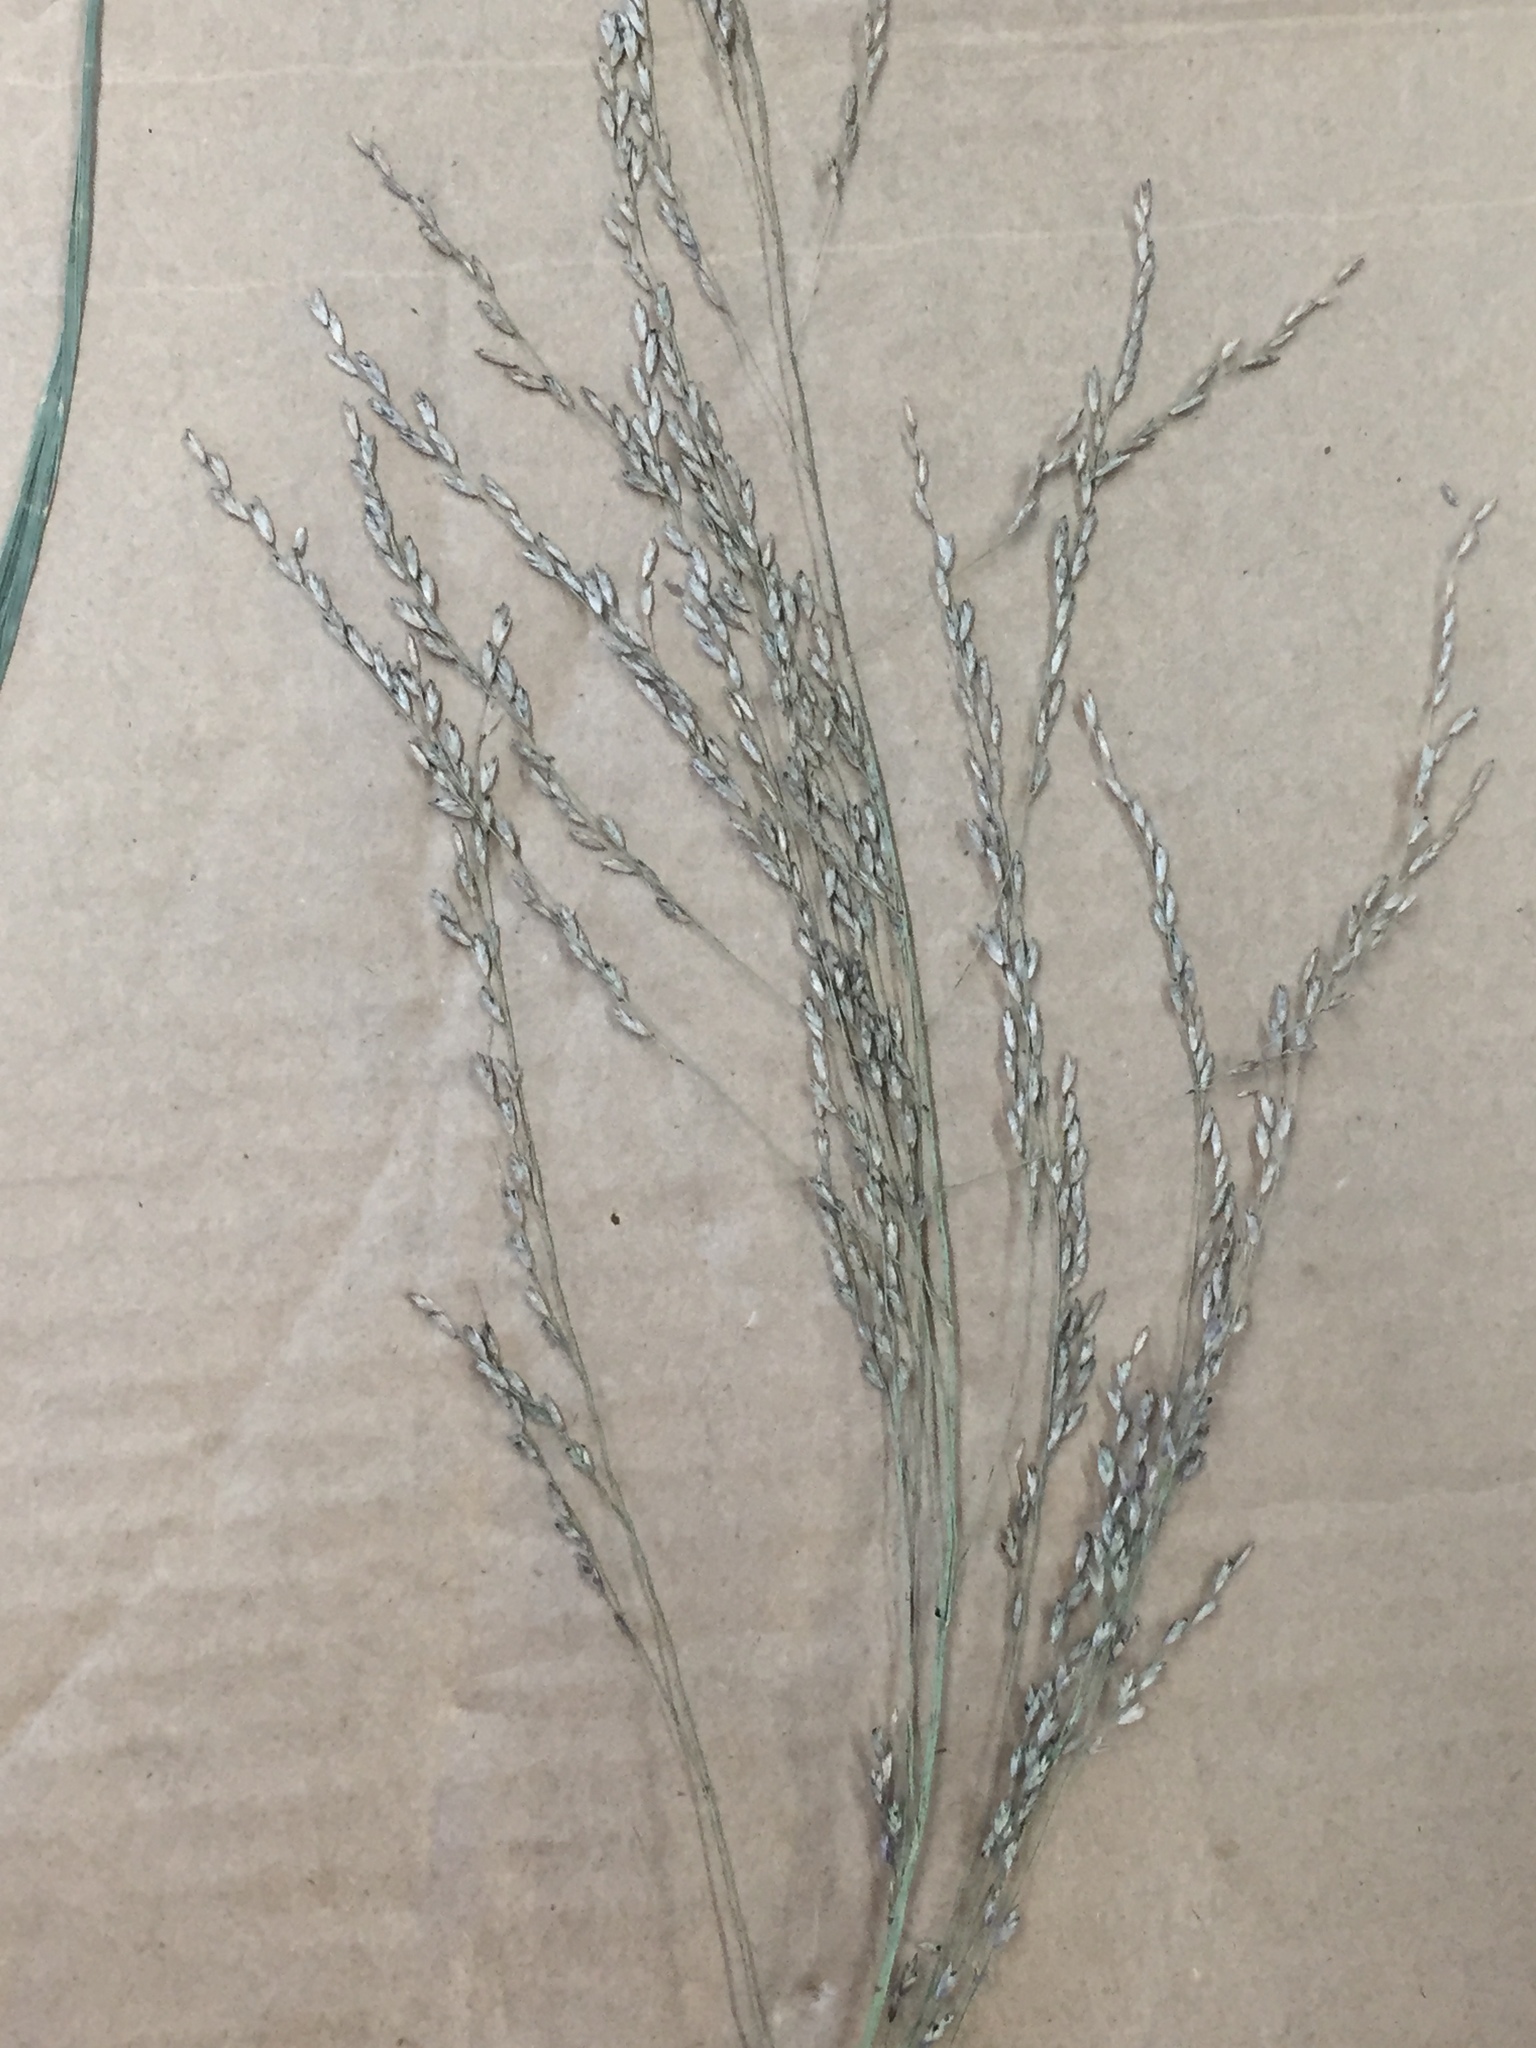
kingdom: Plantae
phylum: Tracheophyta
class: Liliopsida
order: Poales
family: Poaceae
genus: Tridens
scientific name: Tridens flavus
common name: Purpletop
